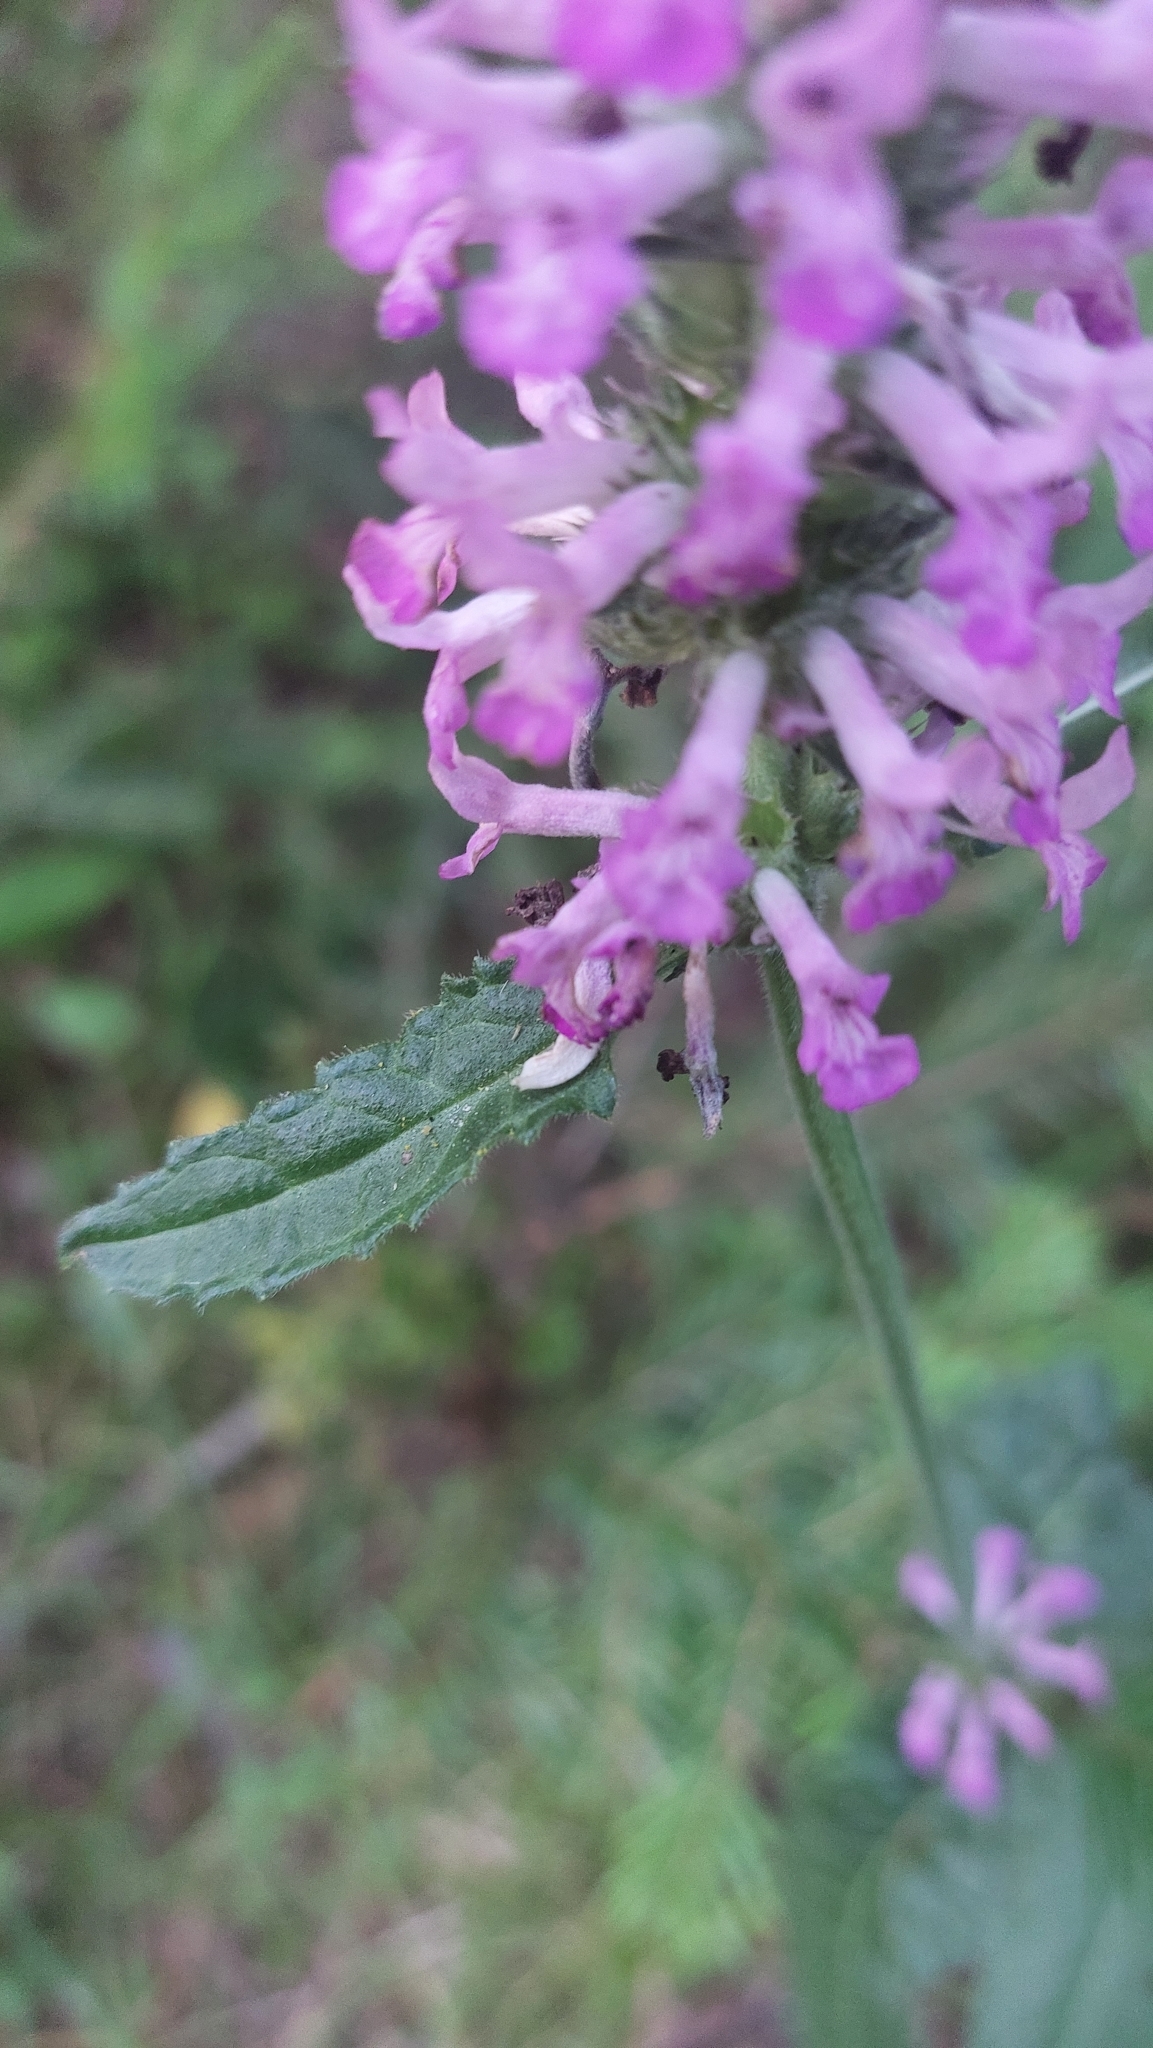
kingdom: Plantae
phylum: Tracheophyta
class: Magnoliopsida
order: Lamiales
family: Lamiaceae
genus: Betonica
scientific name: Betonica officinalis
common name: Bishop's-wort
